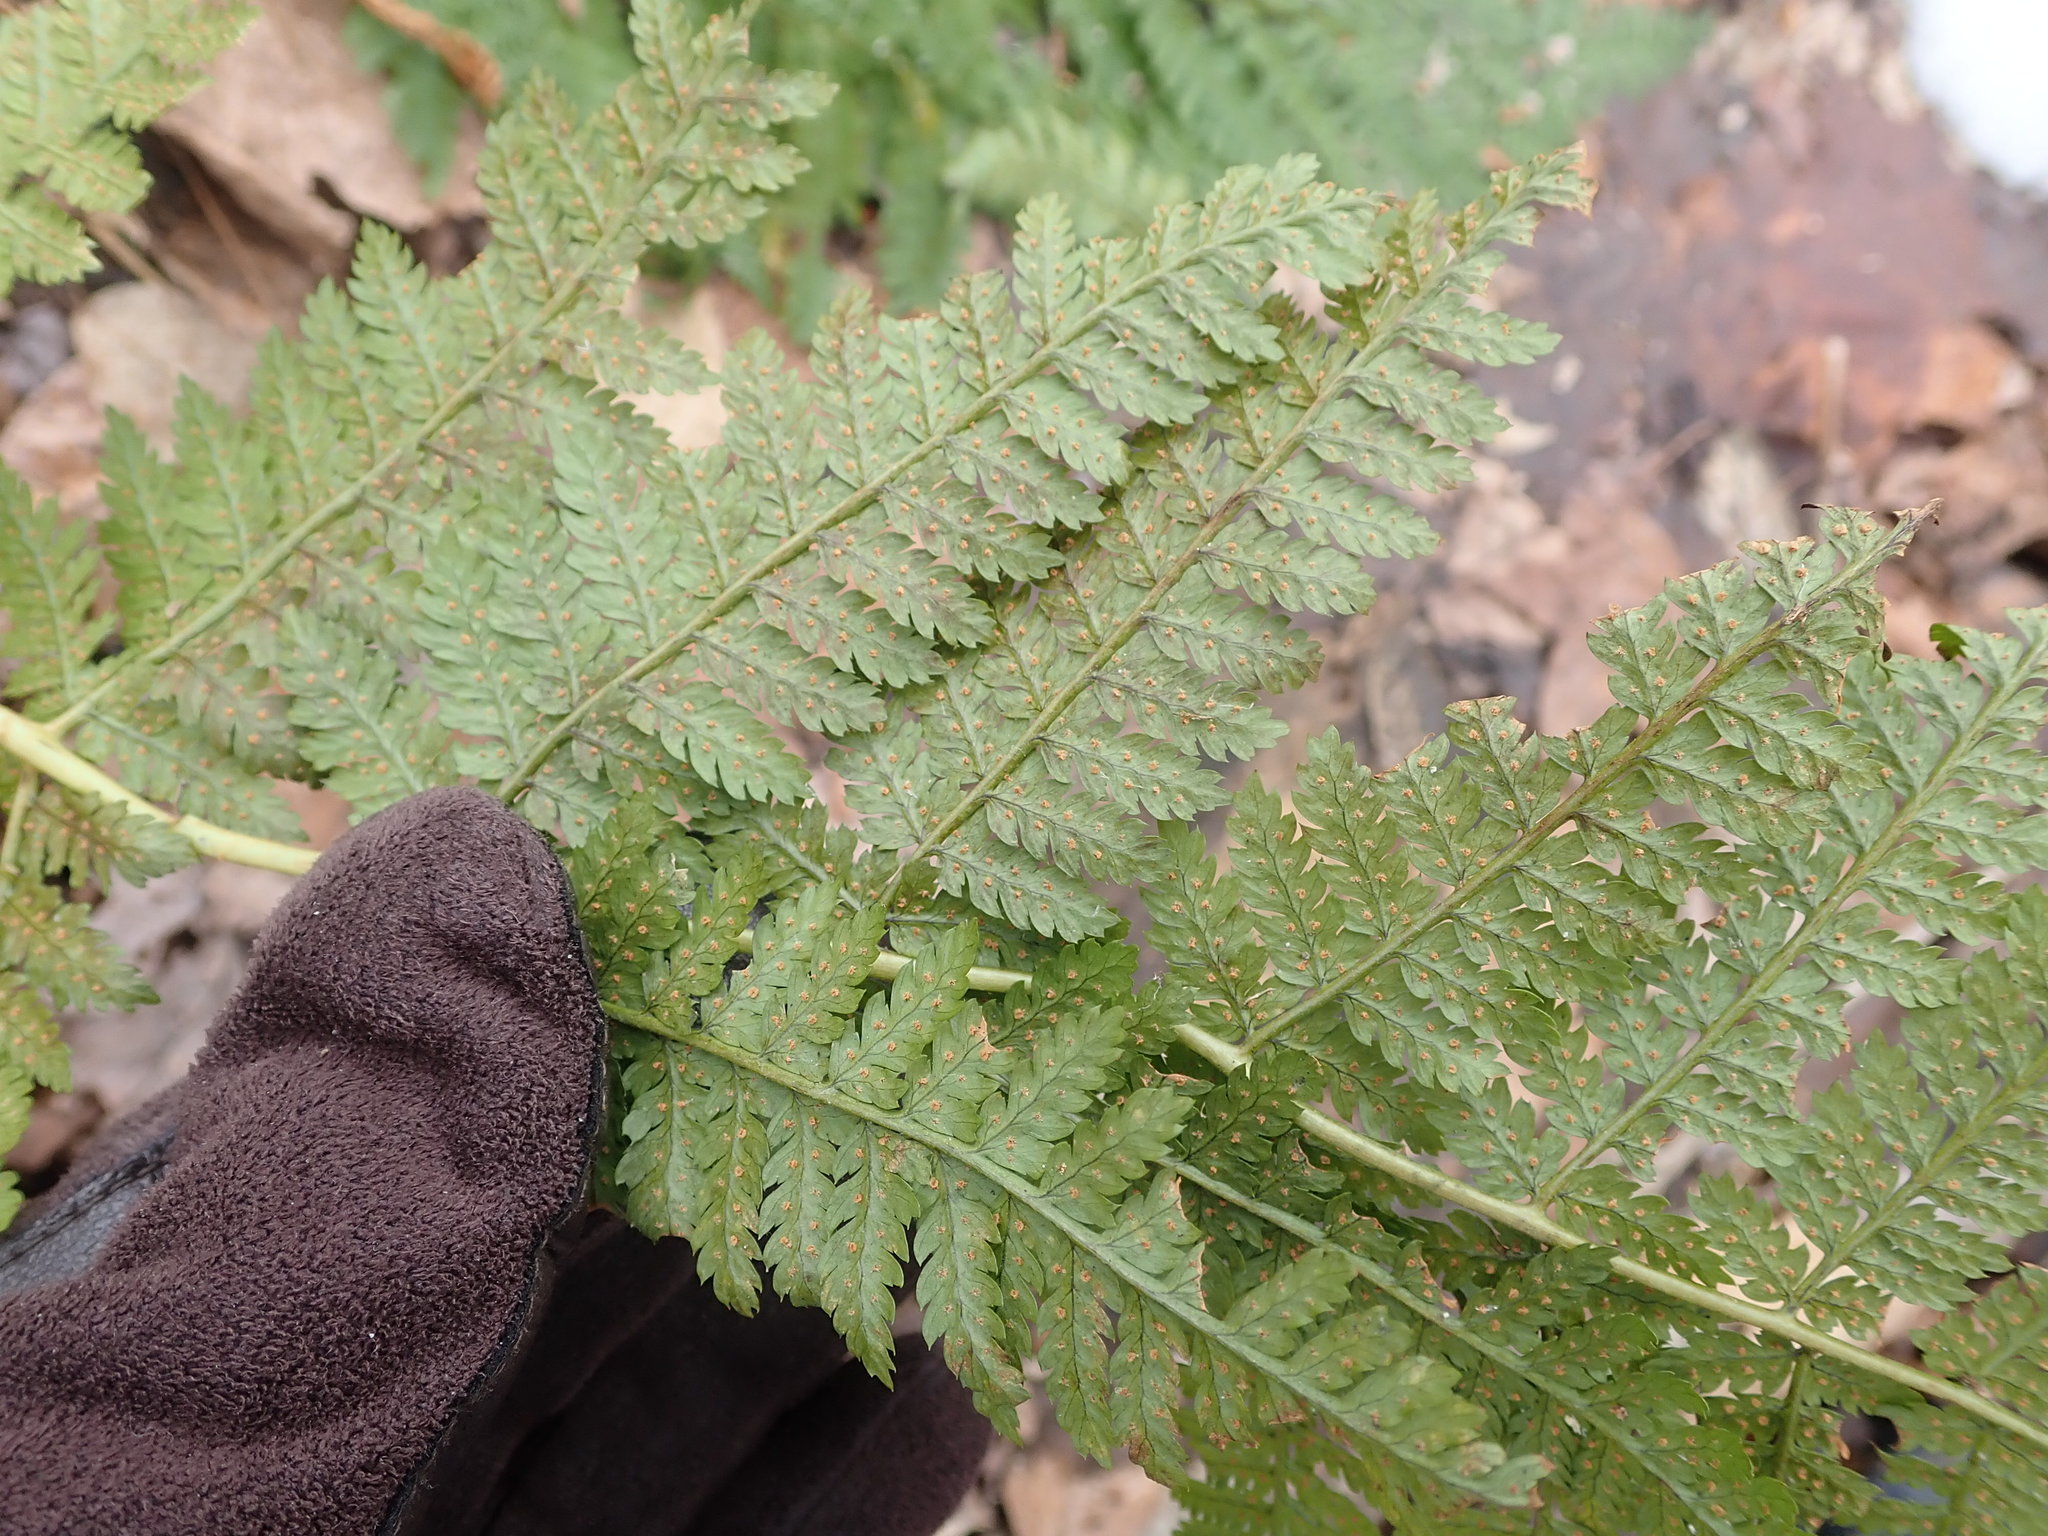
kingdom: Plantae
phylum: Tracheophyta
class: Polypodiopsida
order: Polypodiales
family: Dryopteridaceae
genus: Dryopteris
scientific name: Dryopteris intermedia
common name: Evergreen wood fern
